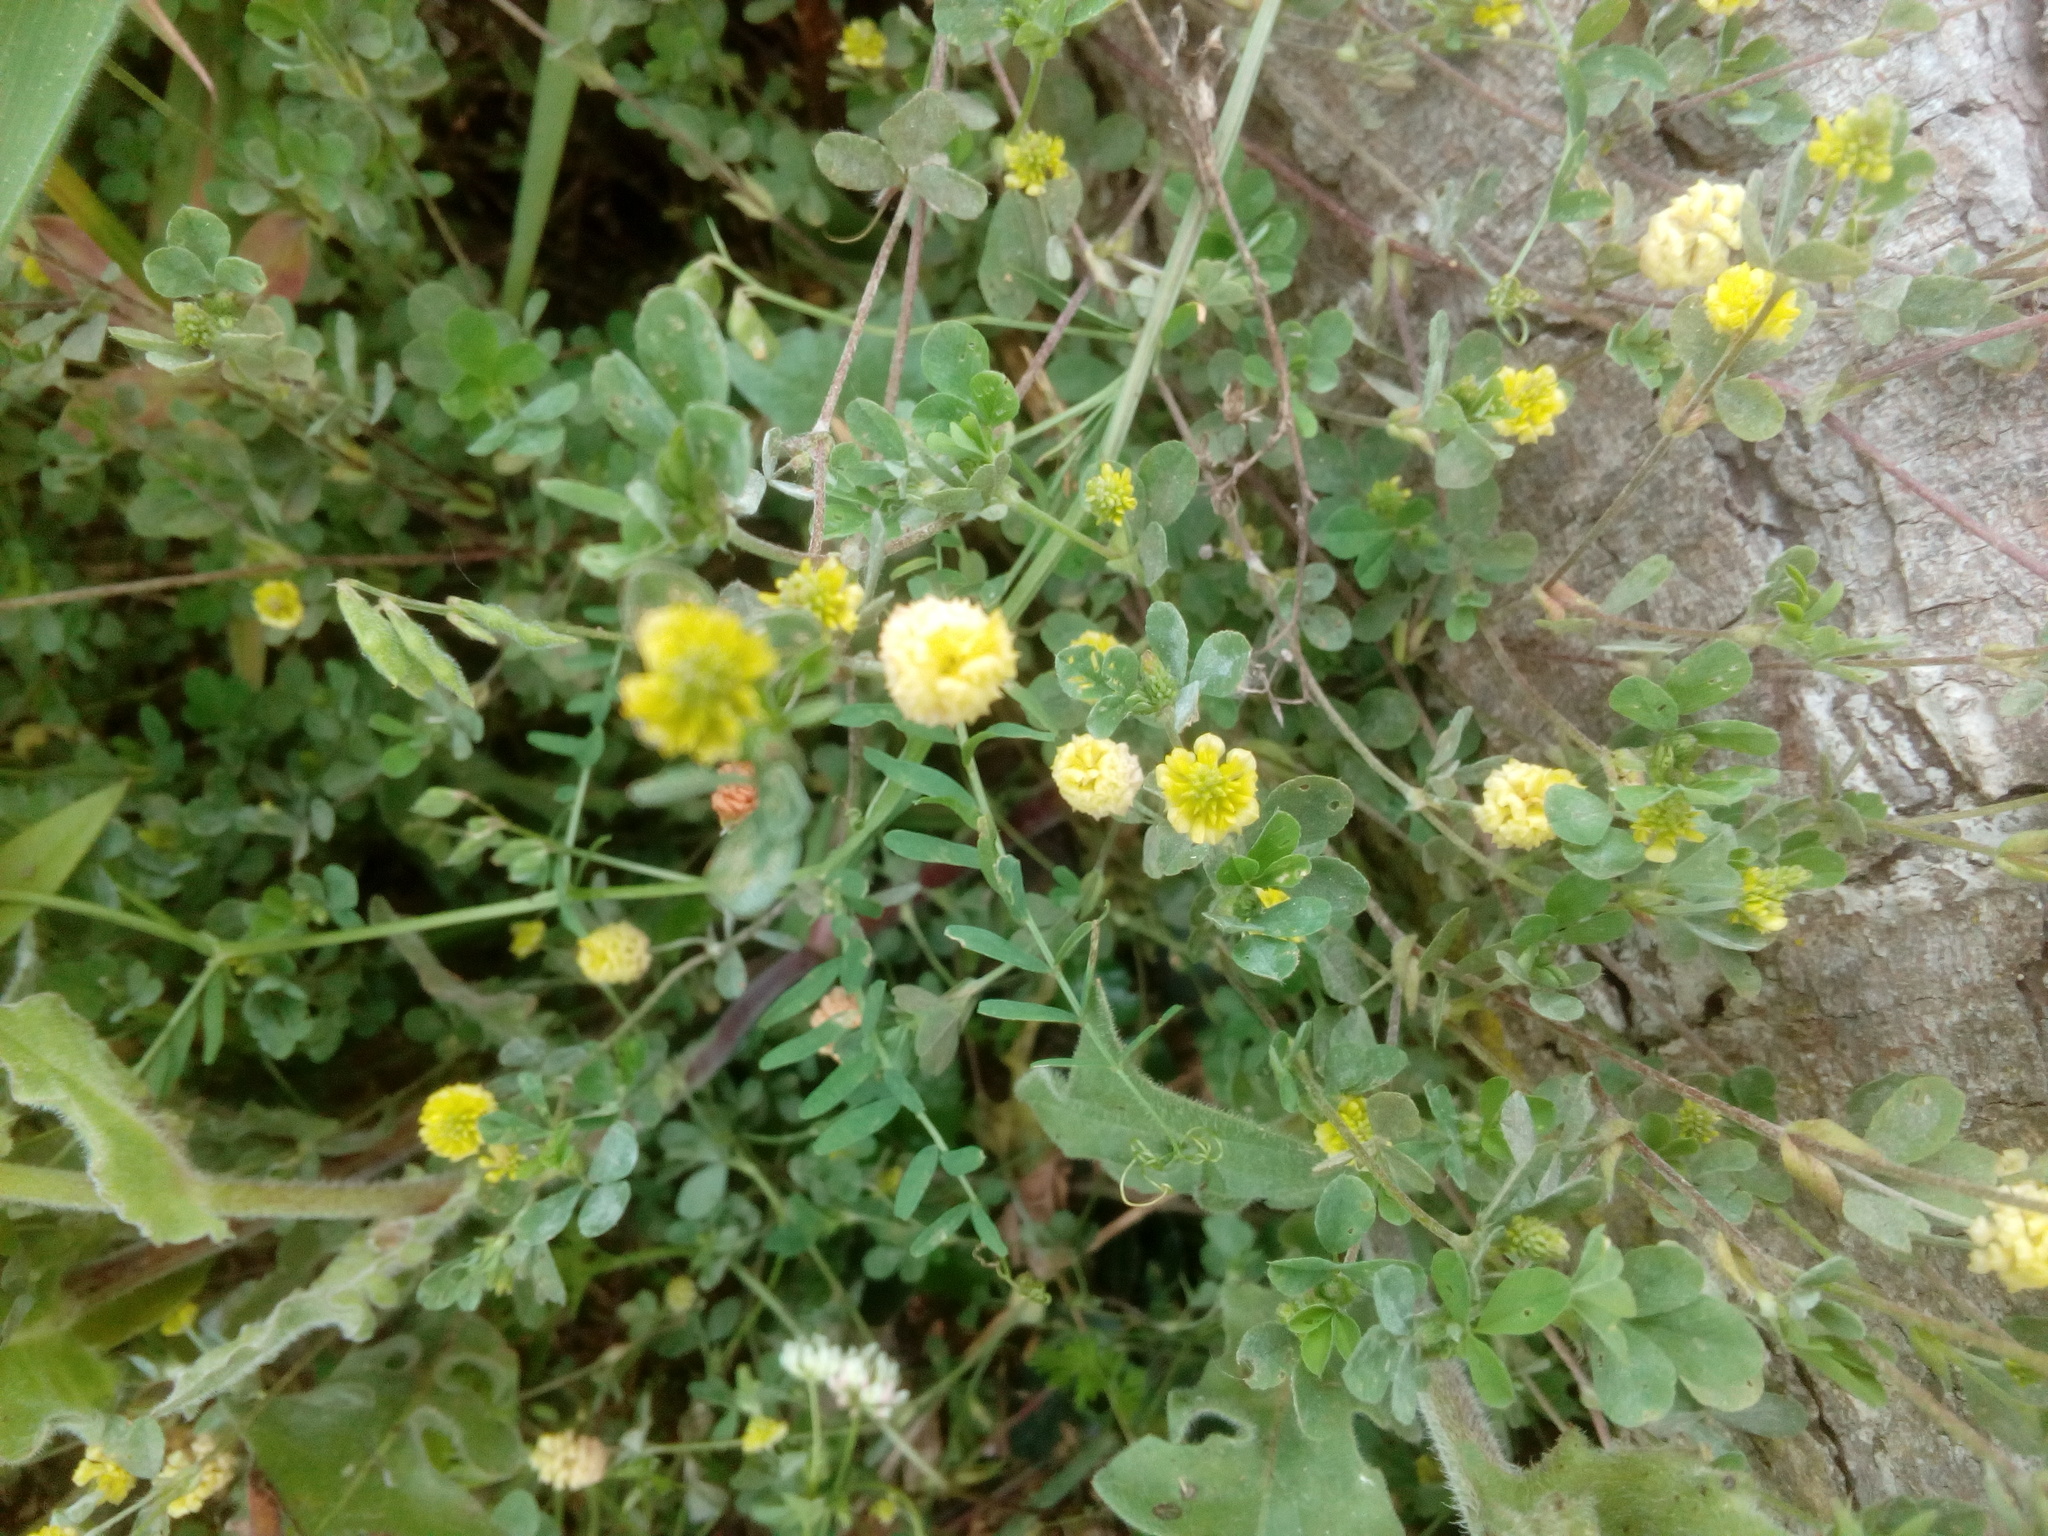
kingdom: Plantae
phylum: Tracheophyta
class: Magnoliopsida
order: Fabales
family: Fabaceae
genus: Trifolium
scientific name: Trifolium campestre
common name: Field clover
